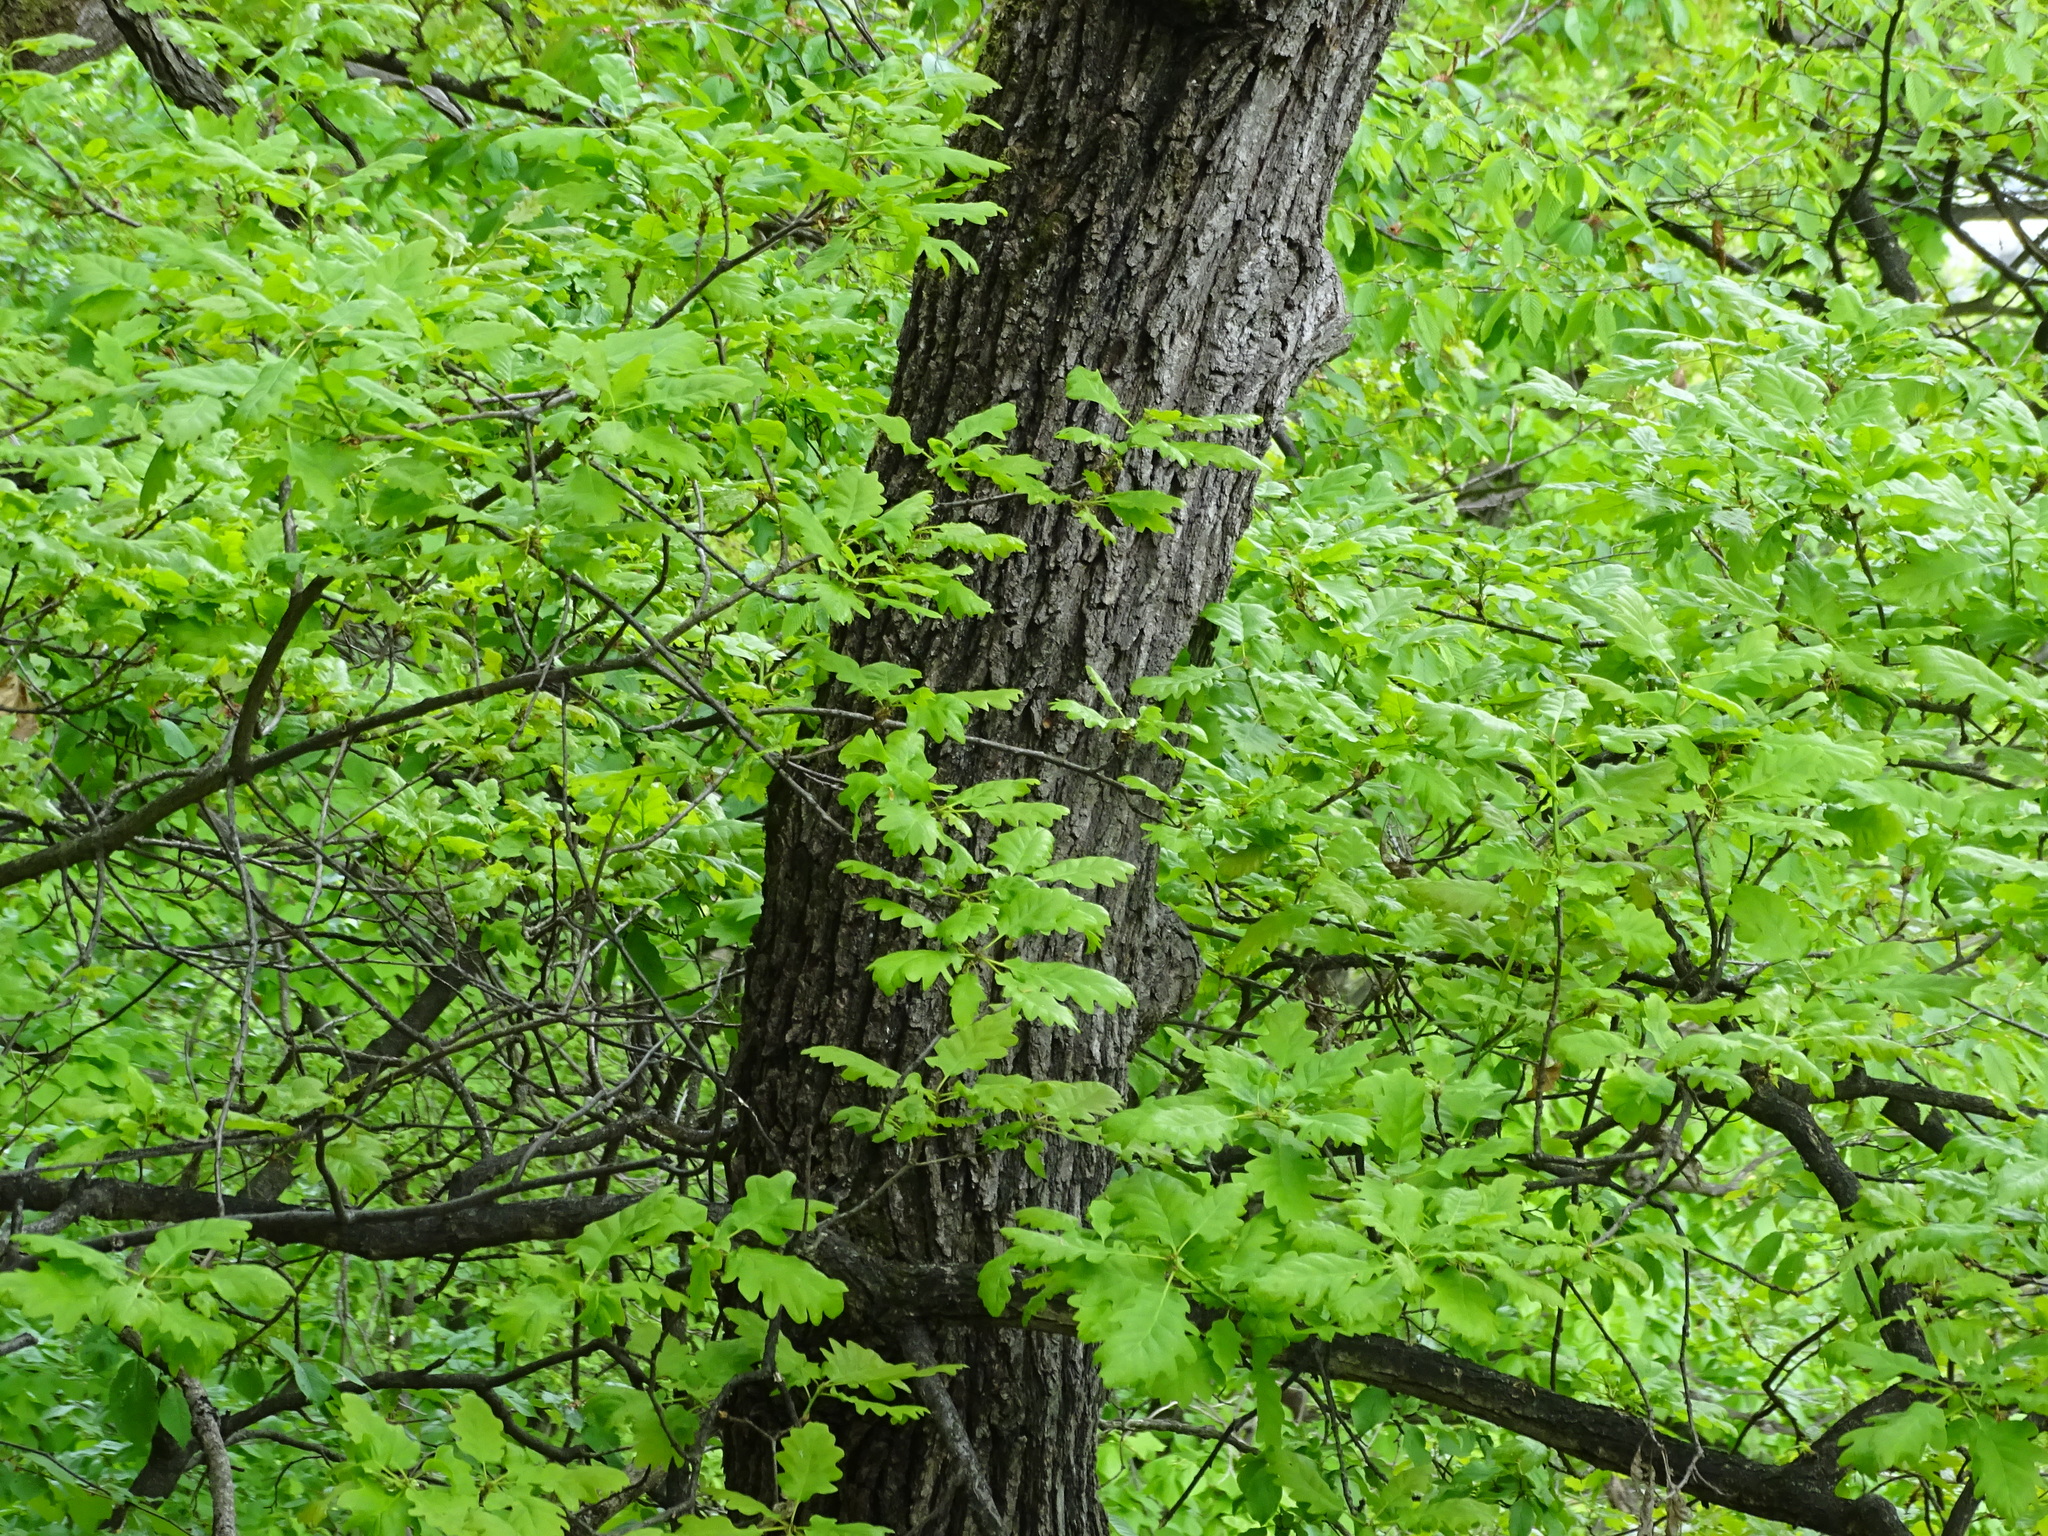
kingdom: Plantae
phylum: Tracheophyta
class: Magnoliopsida
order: Fagales
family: Fagaceae
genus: Quercus
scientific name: Quercus petraea
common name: Sessile oak
